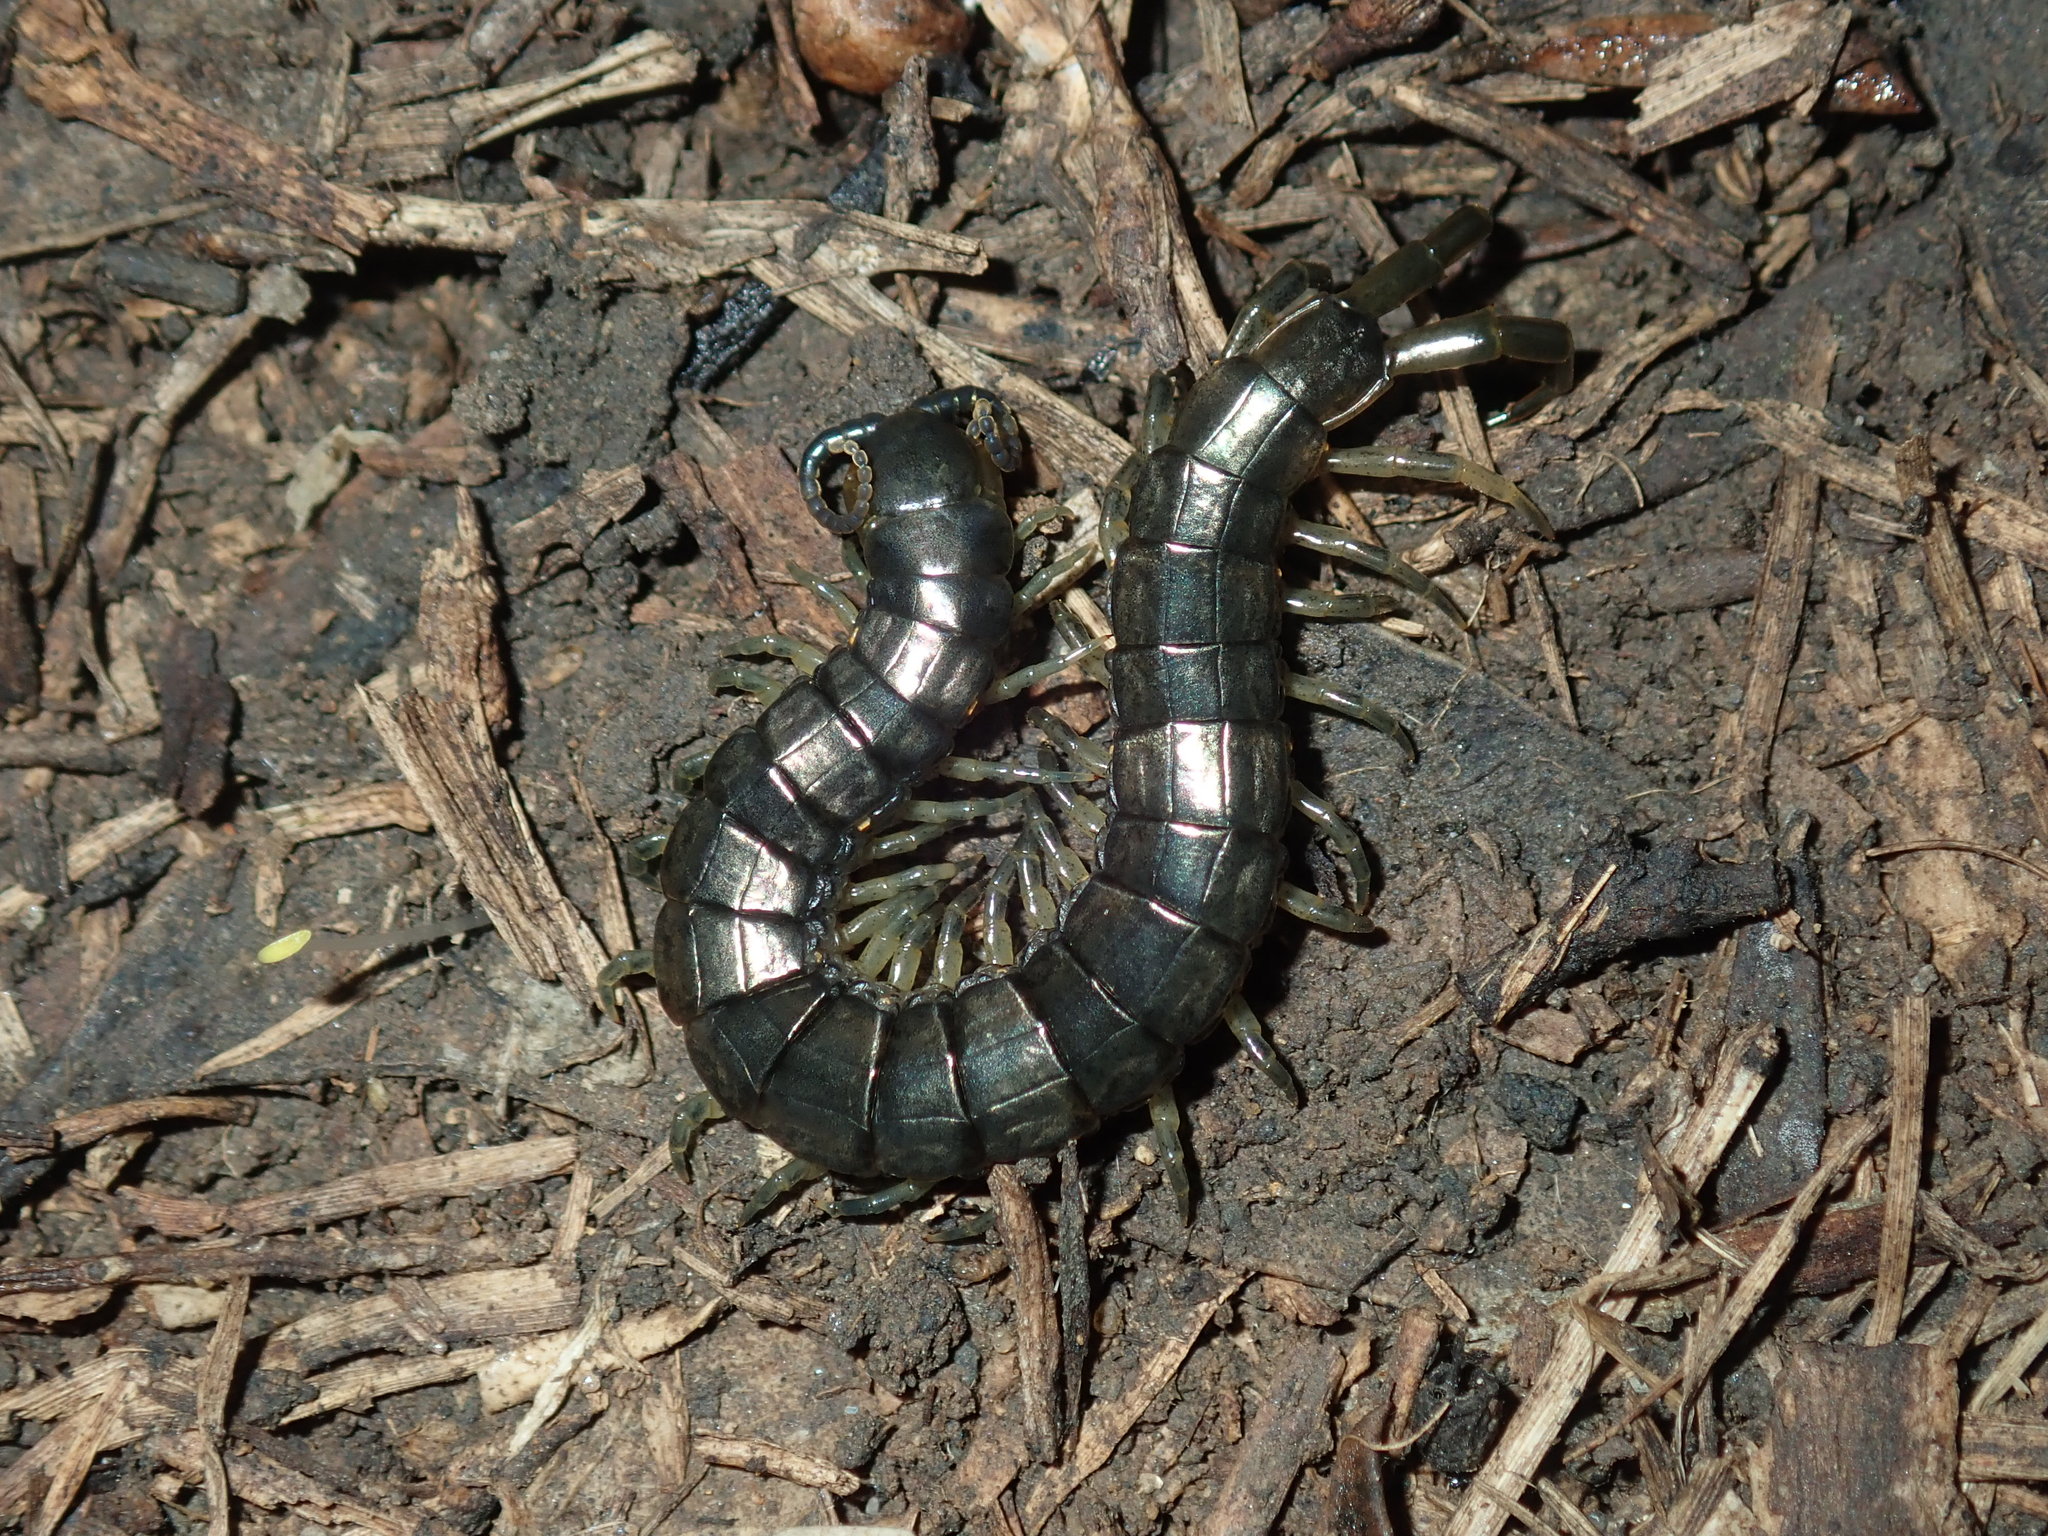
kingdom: Animalia
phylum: Arthropoda
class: Chilopoda
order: Scolopendromorpha
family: Scolopendridae
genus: Cormocephalus
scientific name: Cormocephalus esulcatus
